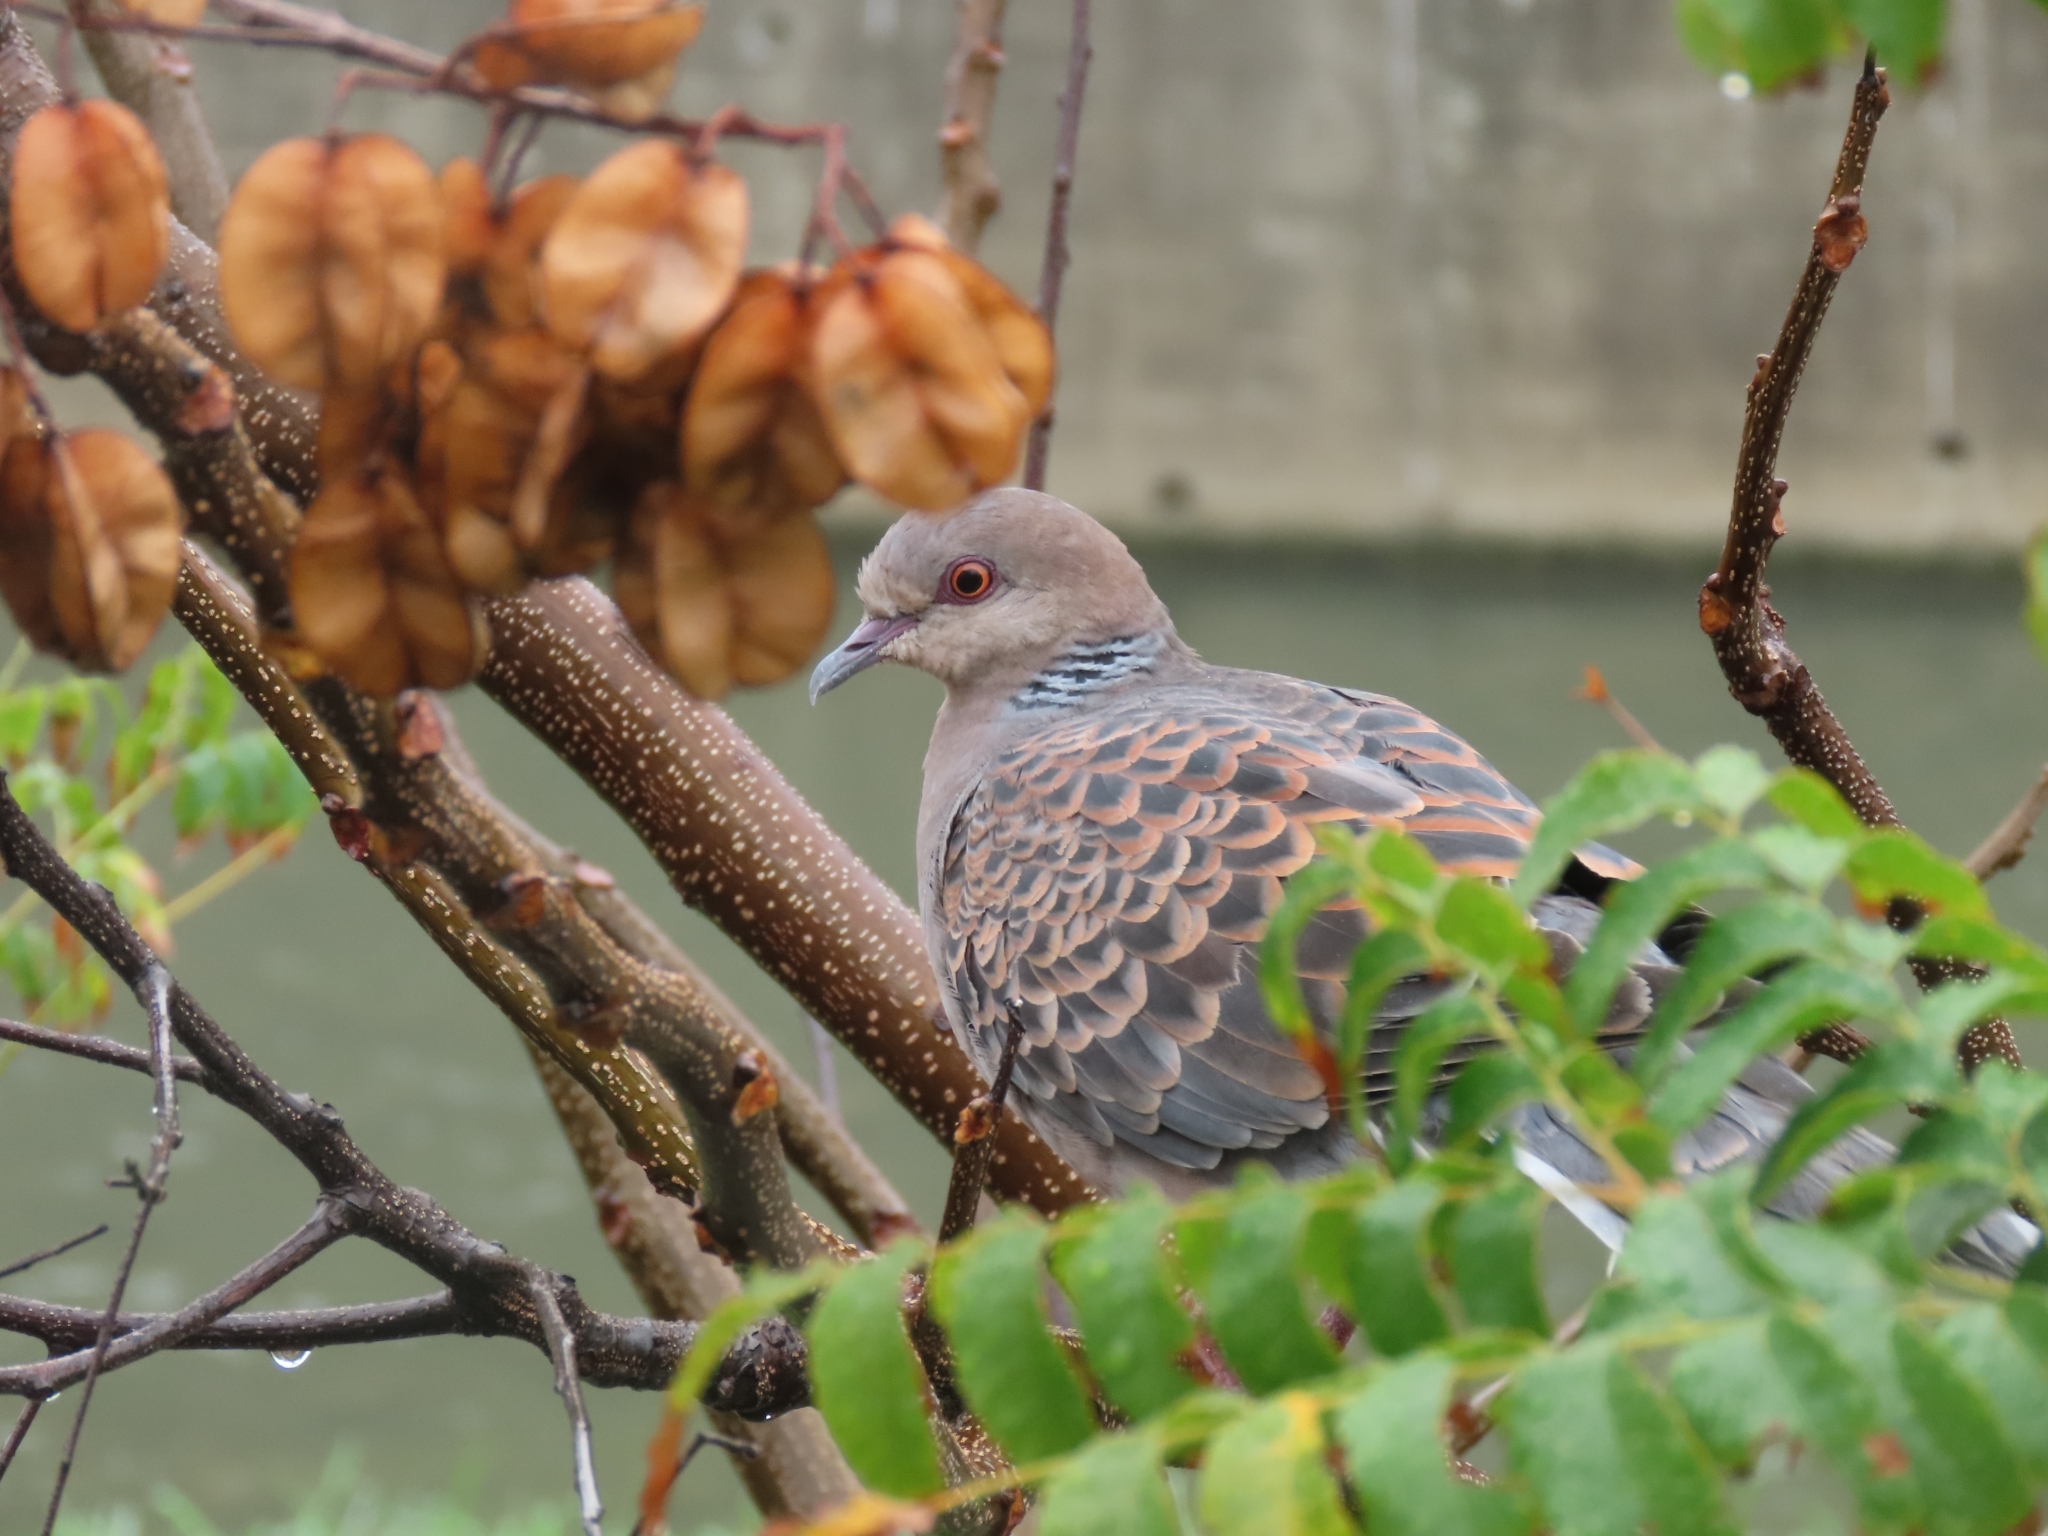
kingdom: Animalia
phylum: Chordata
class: Aves
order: Columbiformes
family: Columbidae
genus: Streptopelia
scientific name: Streptopelia orientalis
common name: Oriental turtle dove
